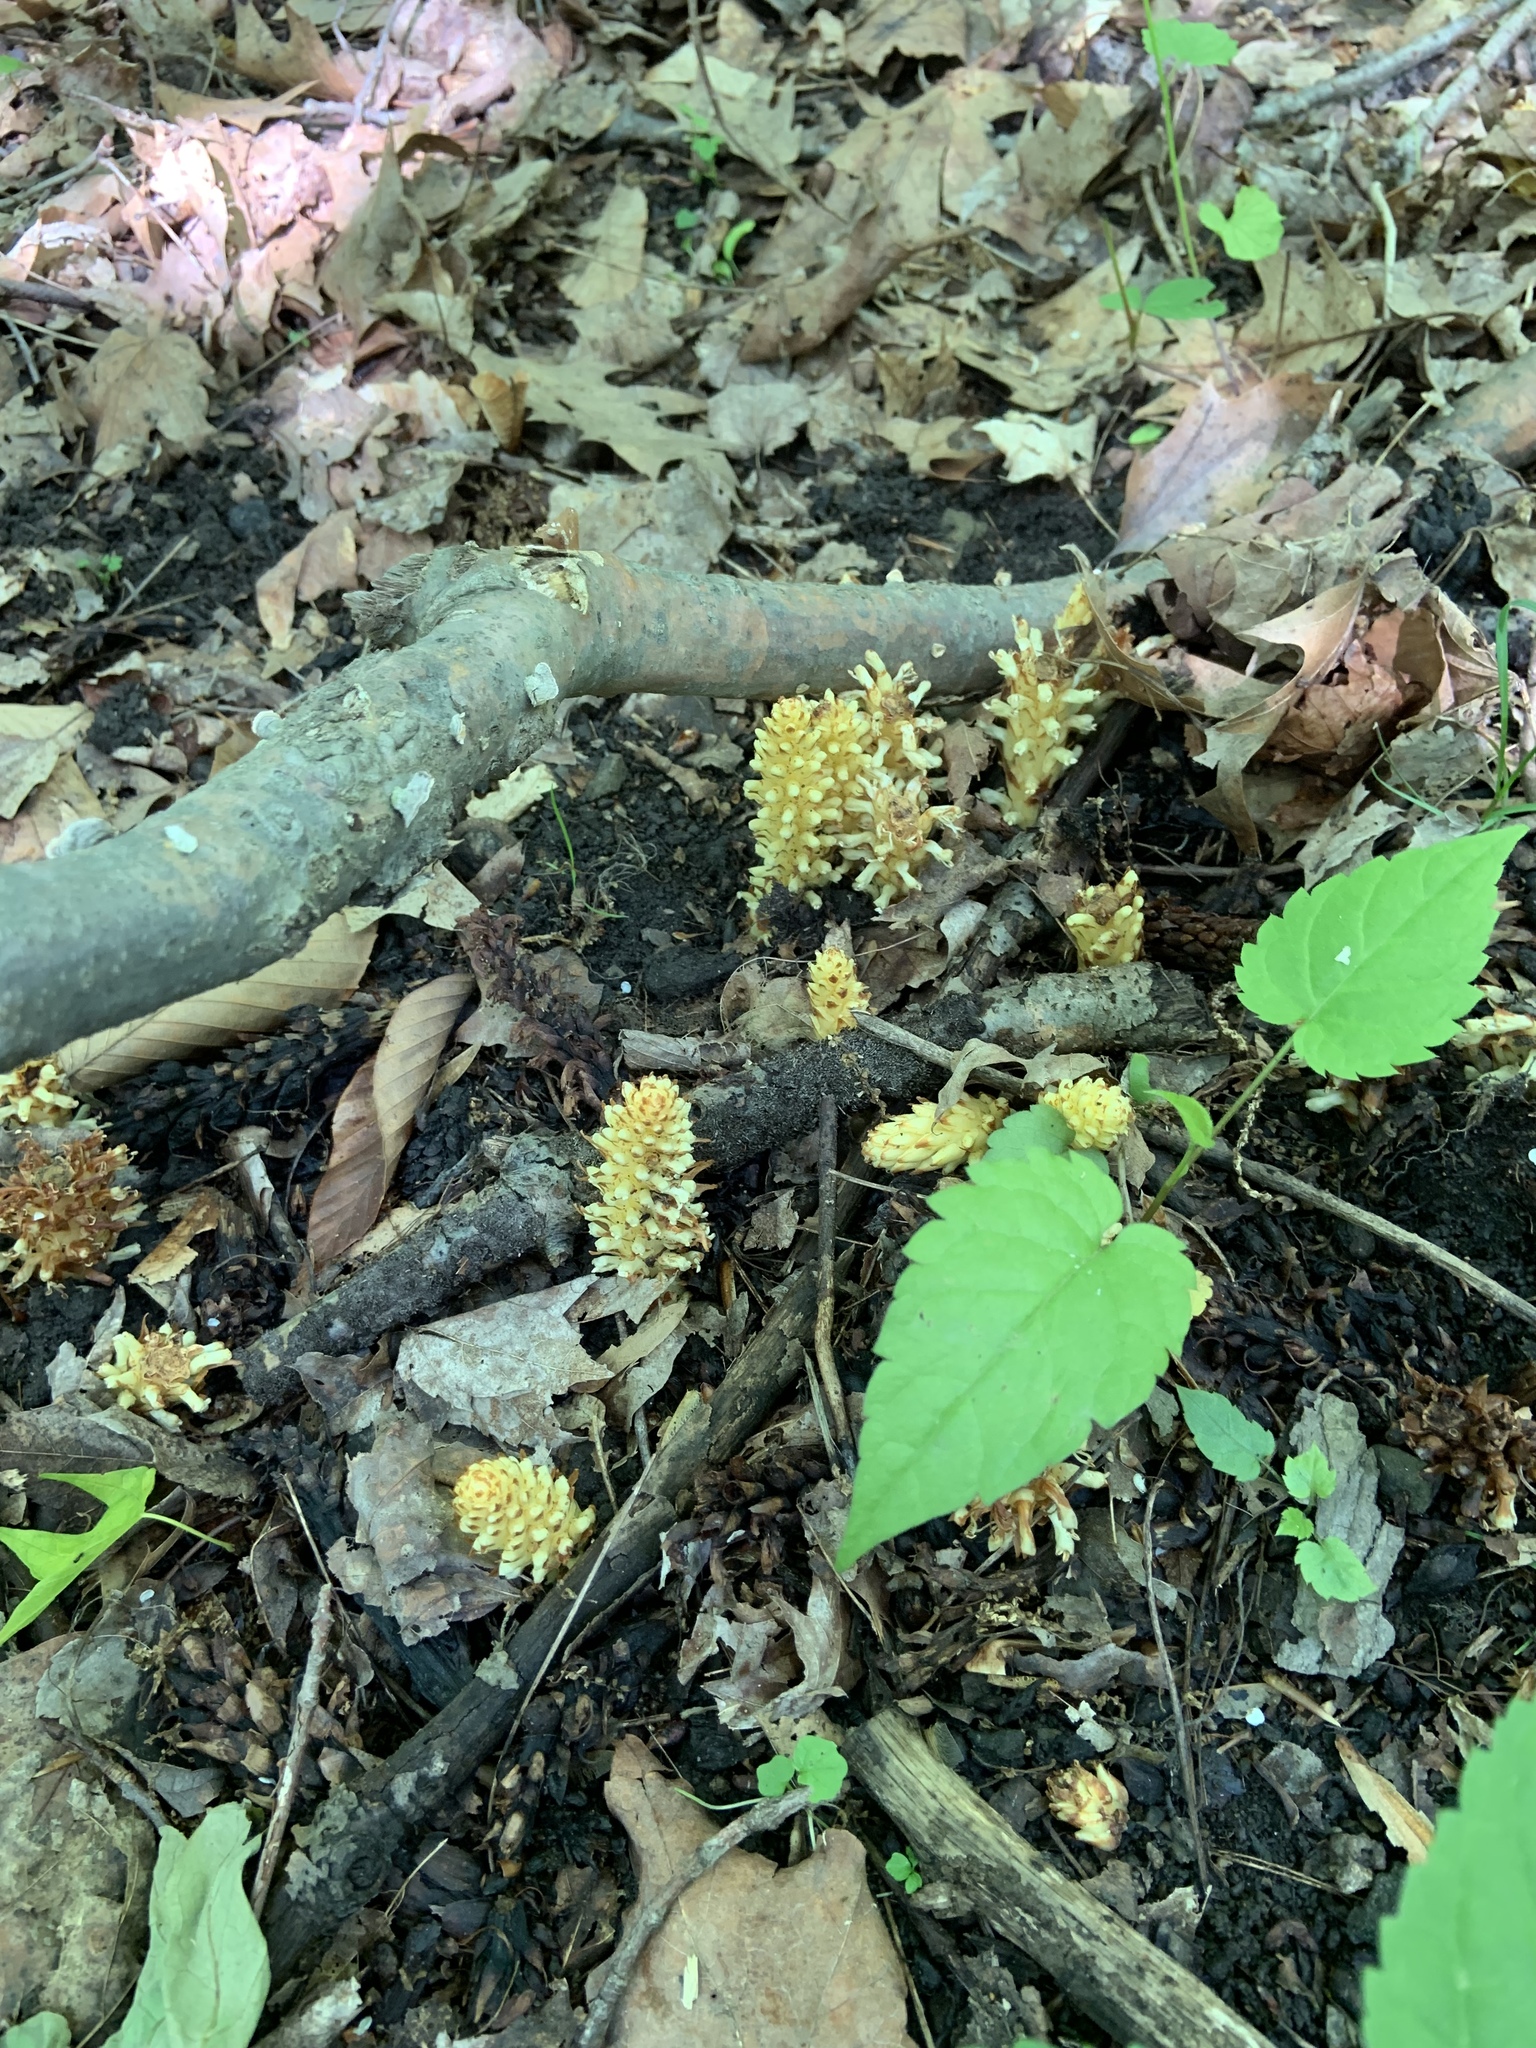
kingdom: Plantae
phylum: Tracheophyta
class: Magnoliopsida
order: Lamiales
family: Orobanchaceae
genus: Conopholis
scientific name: Conopholis americana
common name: American cancer-root
